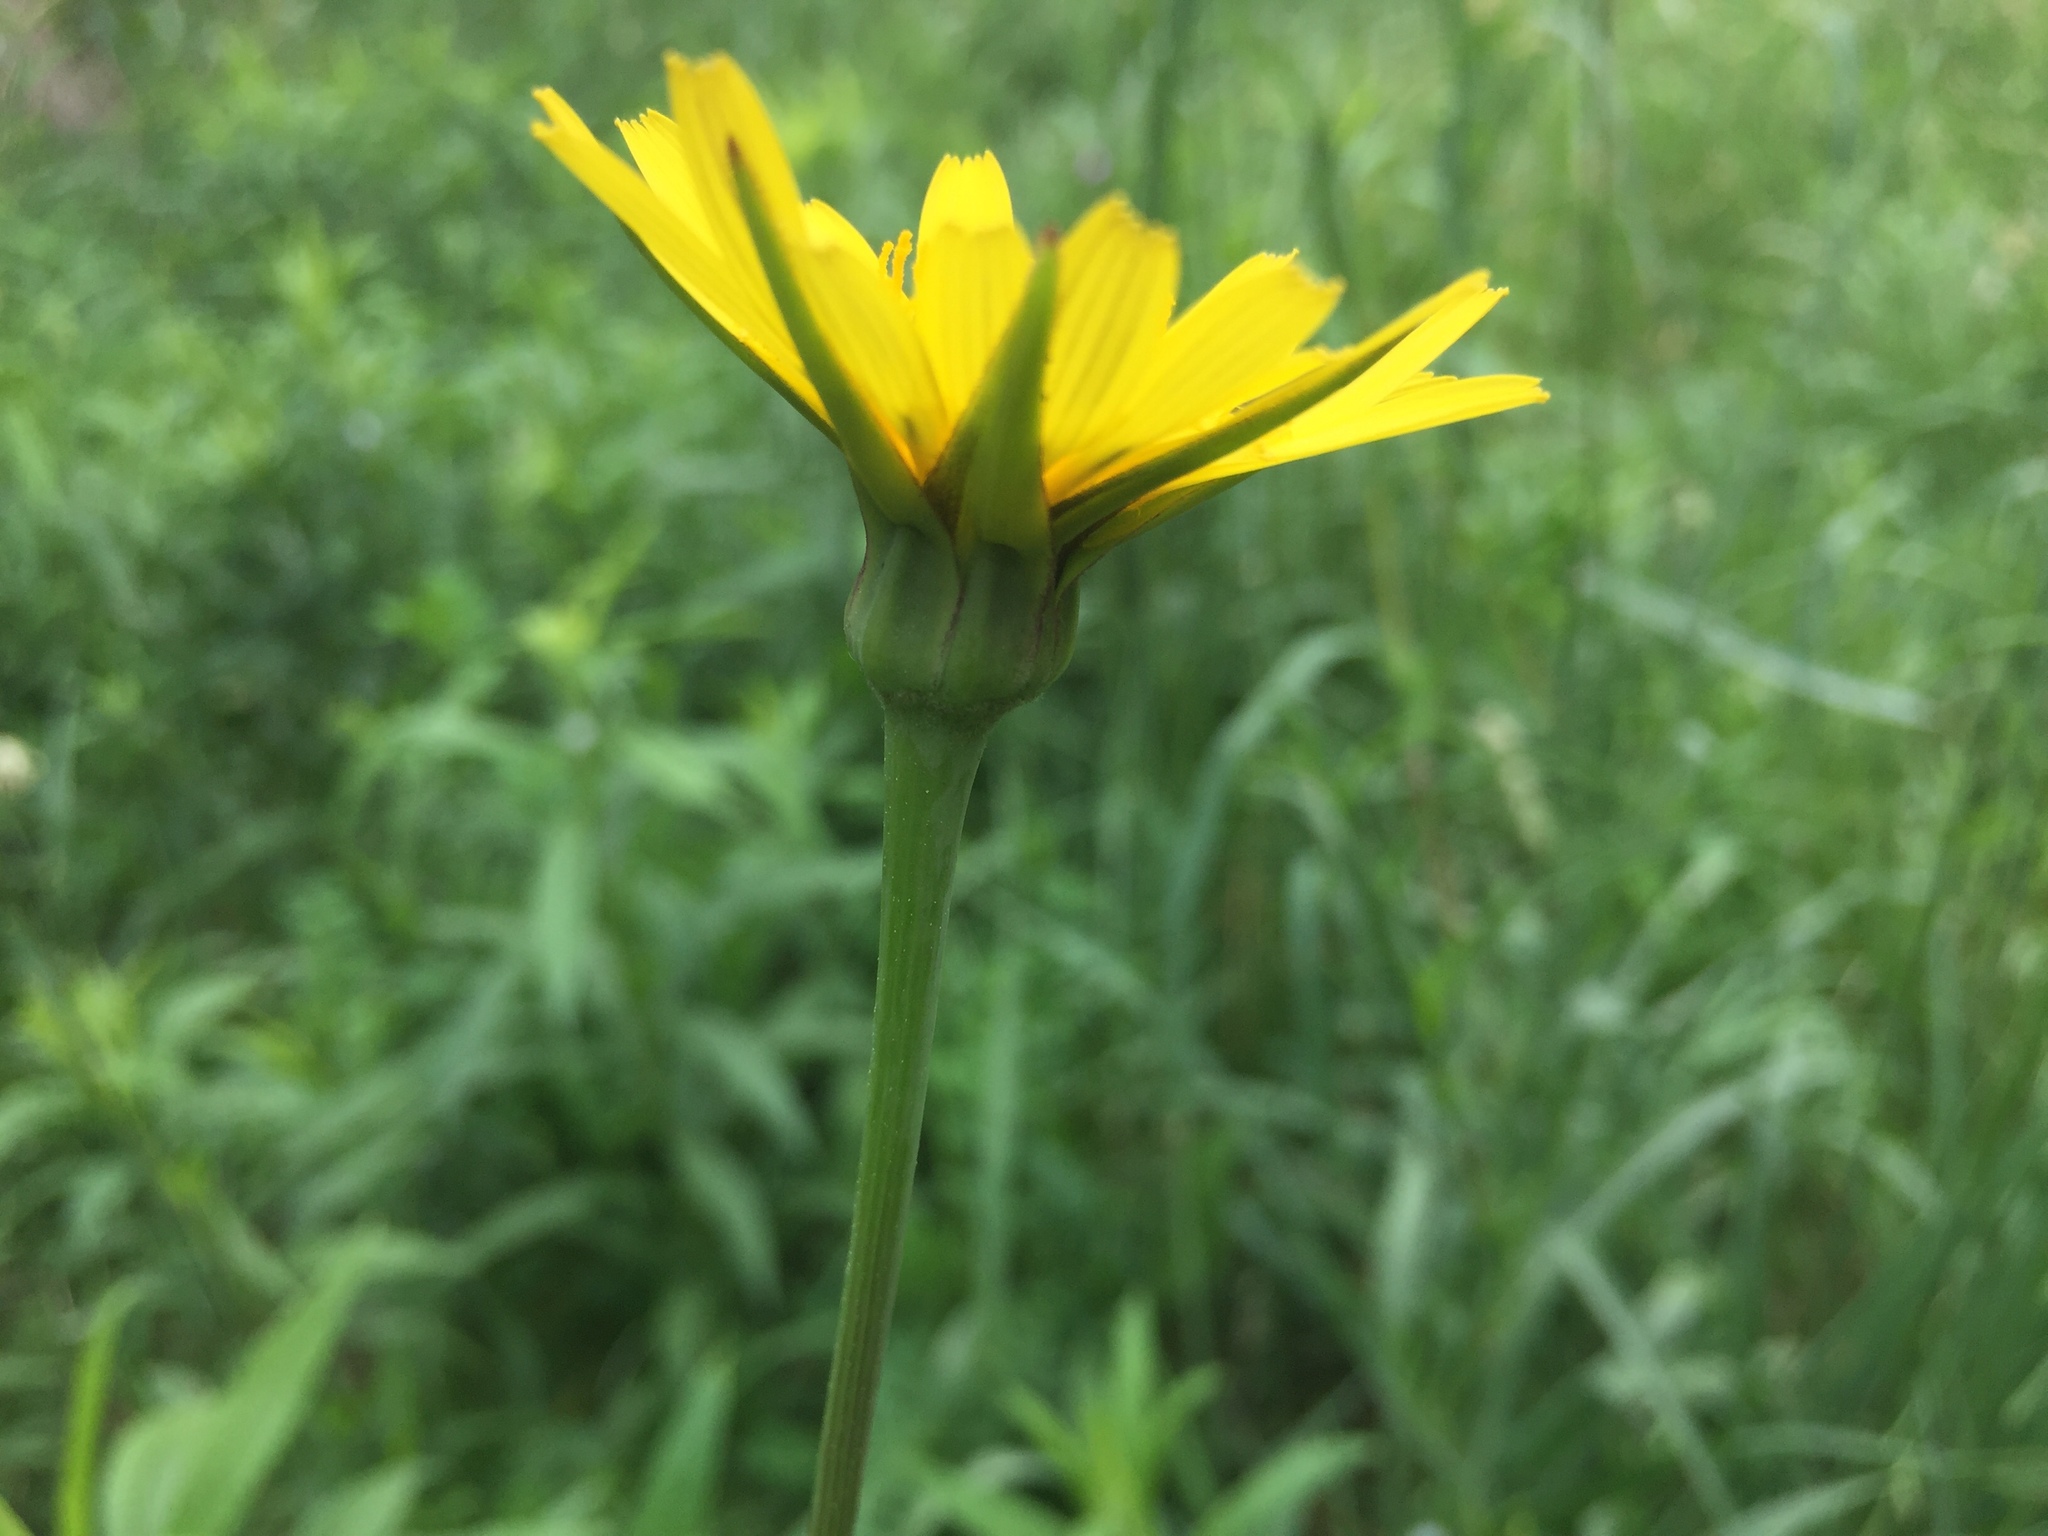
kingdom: Plantae
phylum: Tracheophyta
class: Magnoliopsida
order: Asterales
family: Asteraceae
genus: Tragopogon
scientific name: Tragopogon pratensis
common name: Goat's-beard
